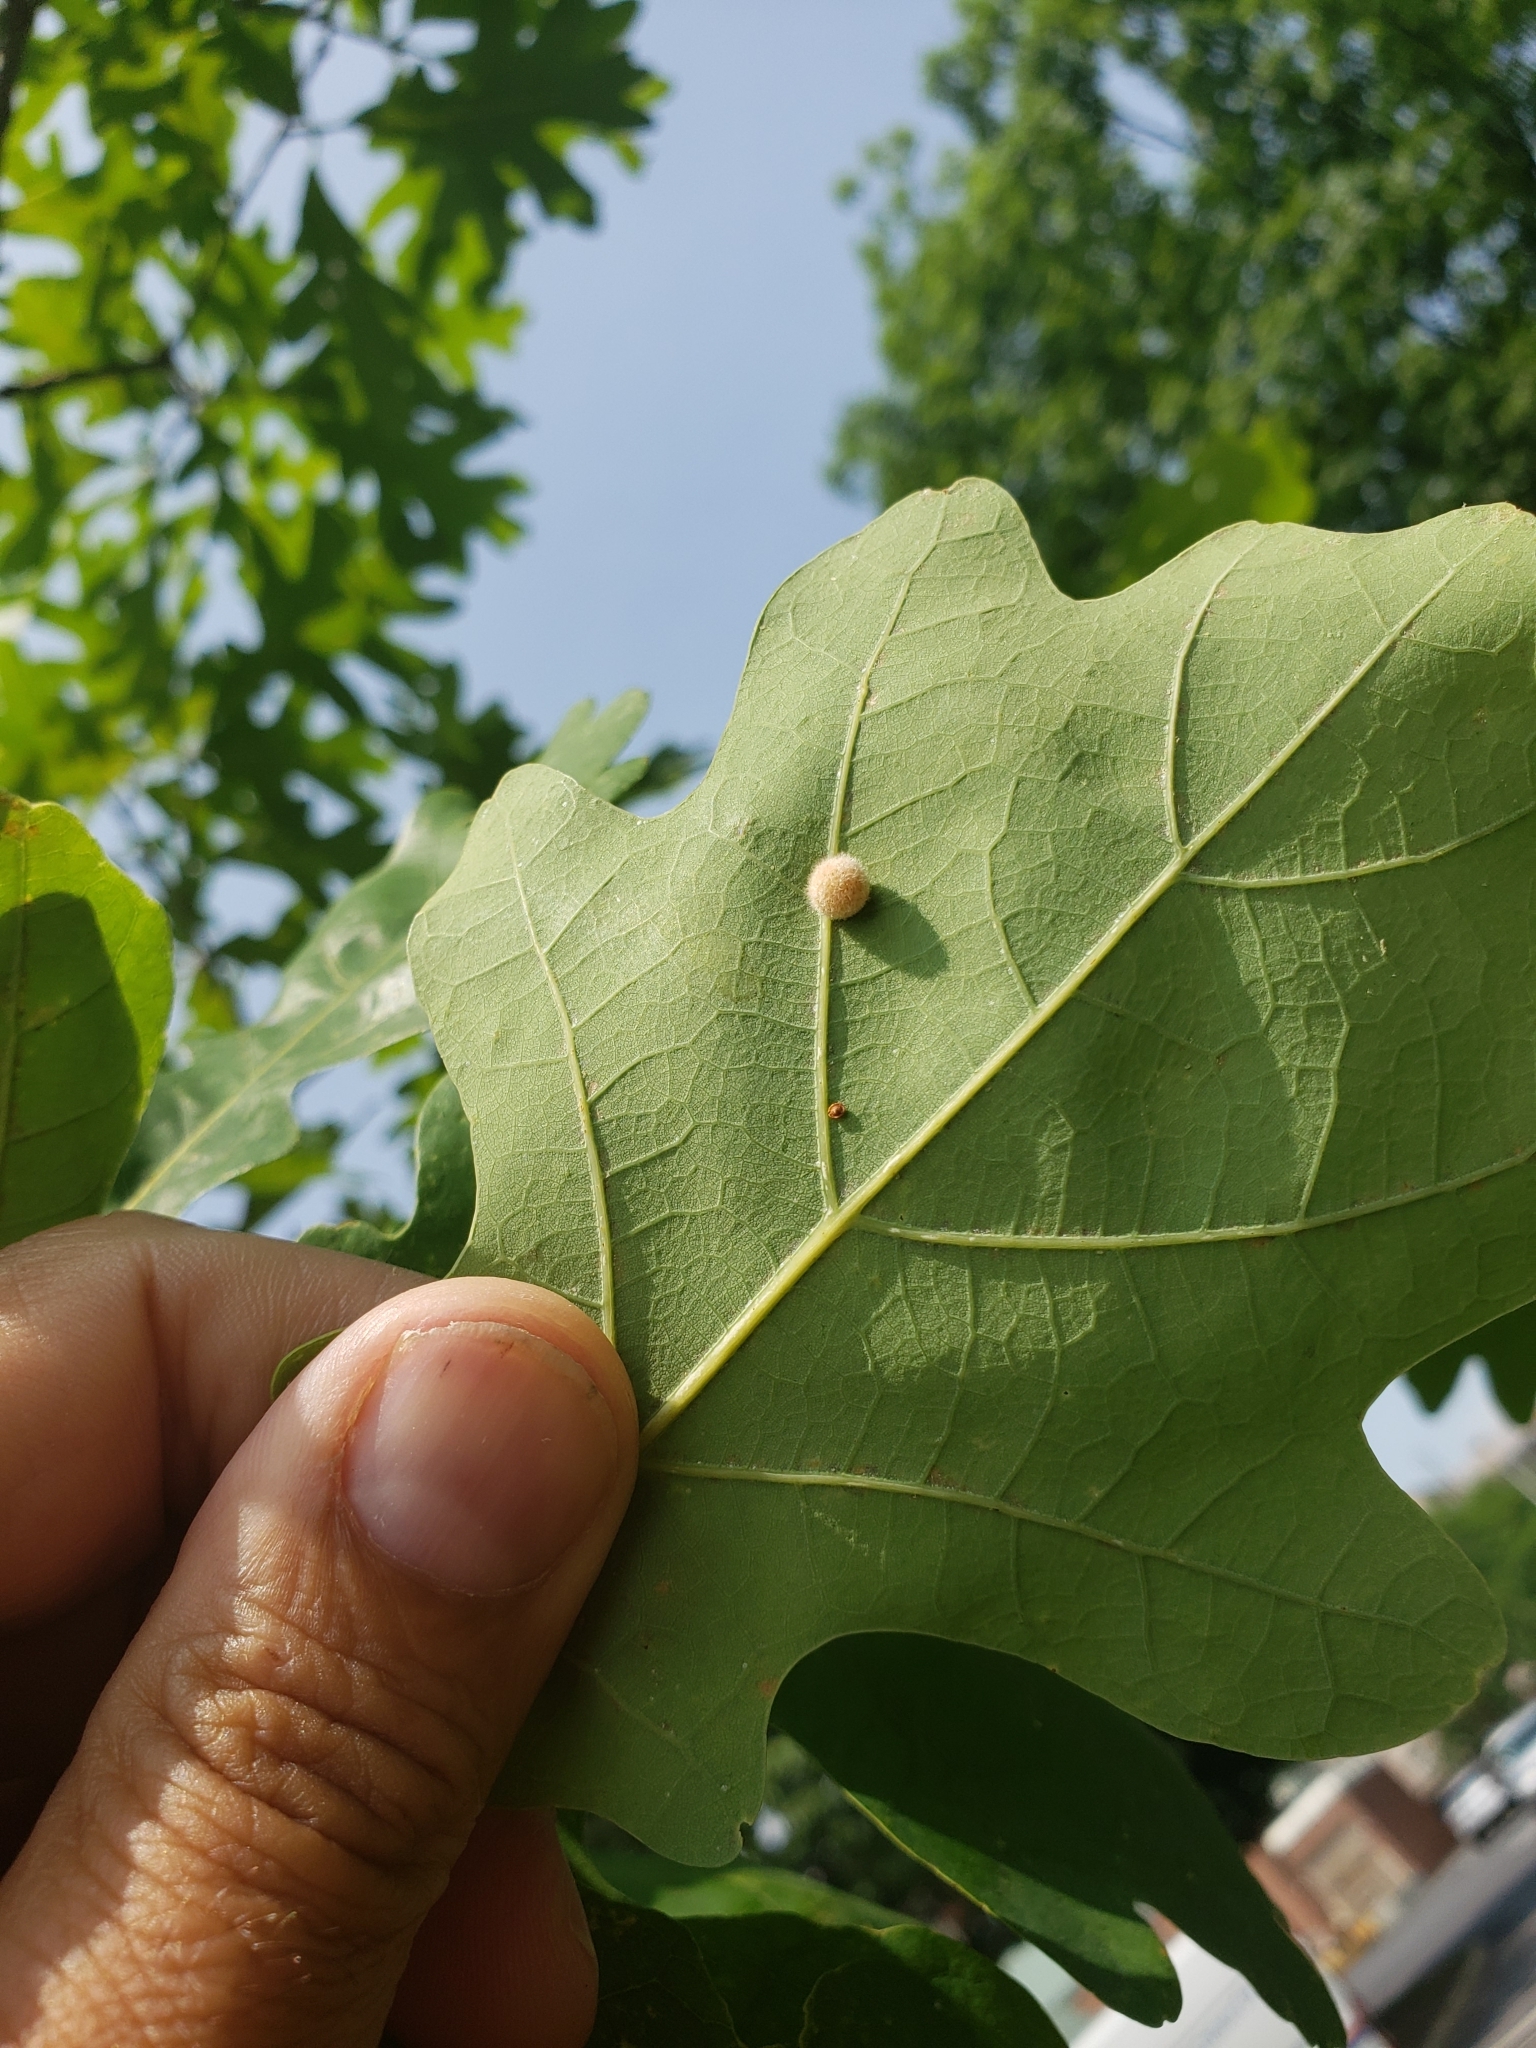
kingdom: Animalia
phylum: Arthropoda
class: Insecta
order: Hymenoptera
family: Cynipidae
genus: Philonix
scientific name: Philonix fulvicollis
